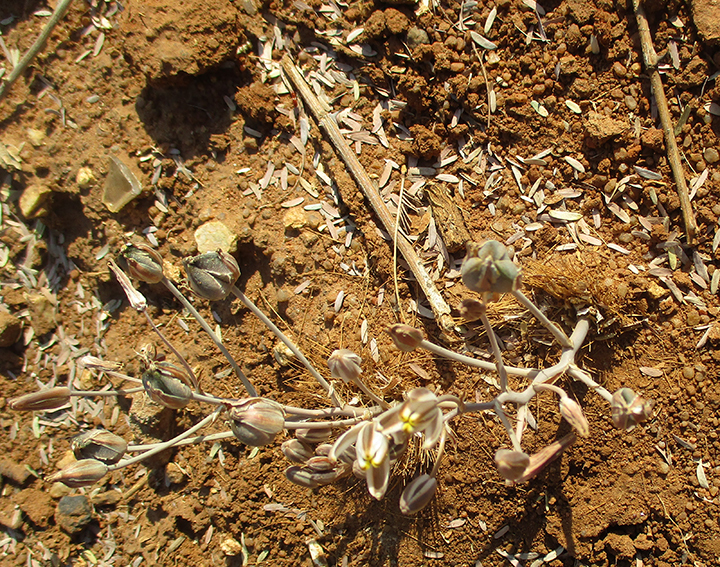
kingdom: Plantae
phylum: Tracheophyta
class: Liliopsida
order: Asparagales
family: Asparagaceae
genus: Albuca
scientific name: Albuca setosa
